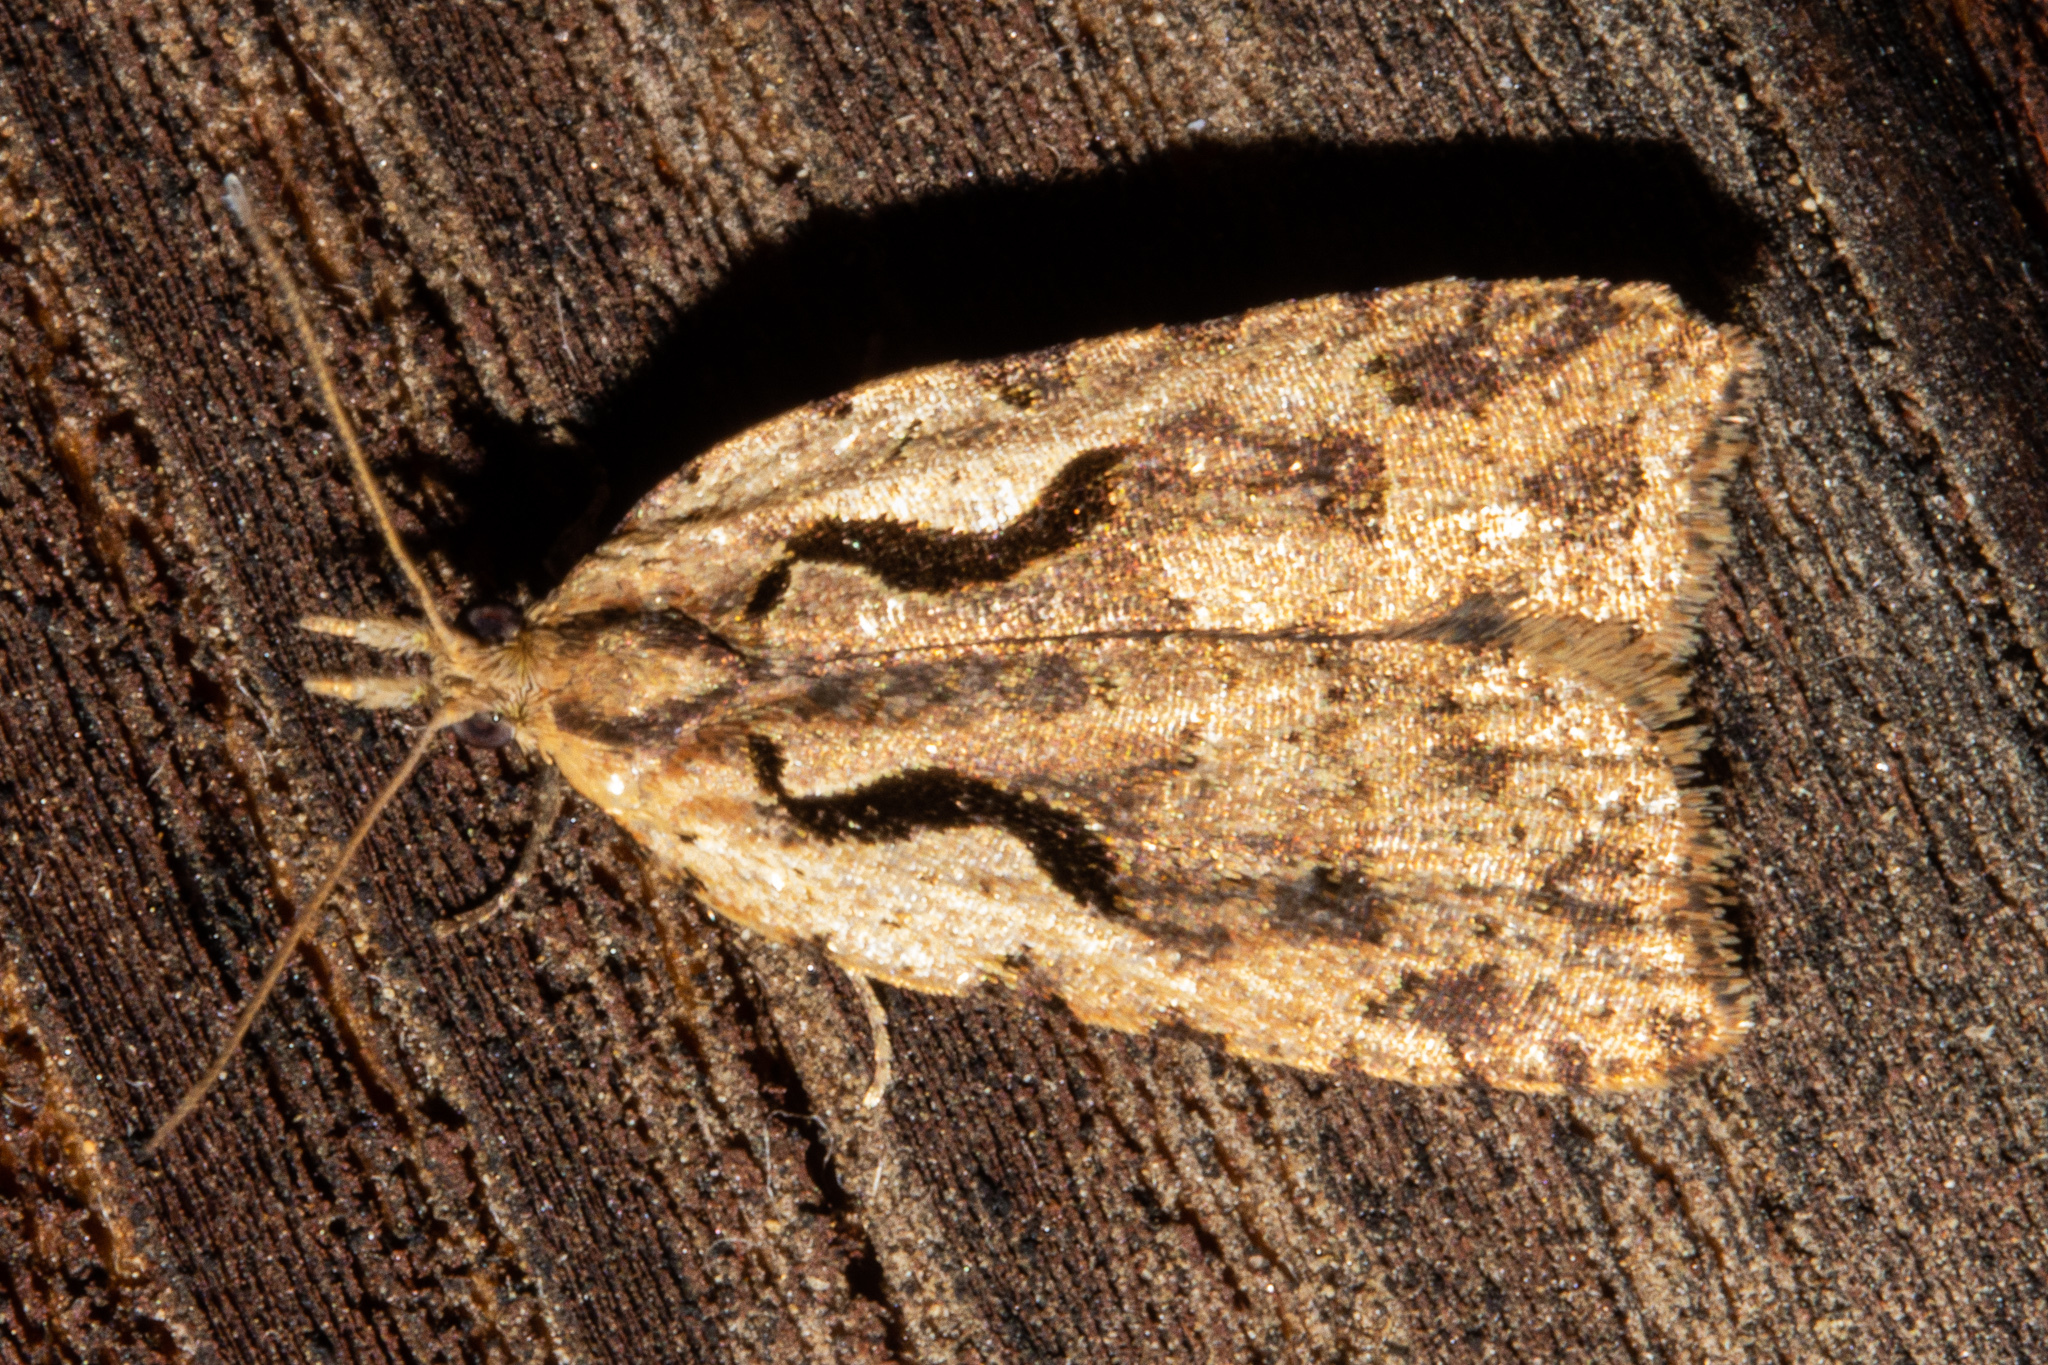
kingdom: Animalia
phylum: Arthropoda
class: Insecta
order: Lepidoptera
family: Tortricidae
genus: Cnephasia
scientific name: Cnephasia jactatana
